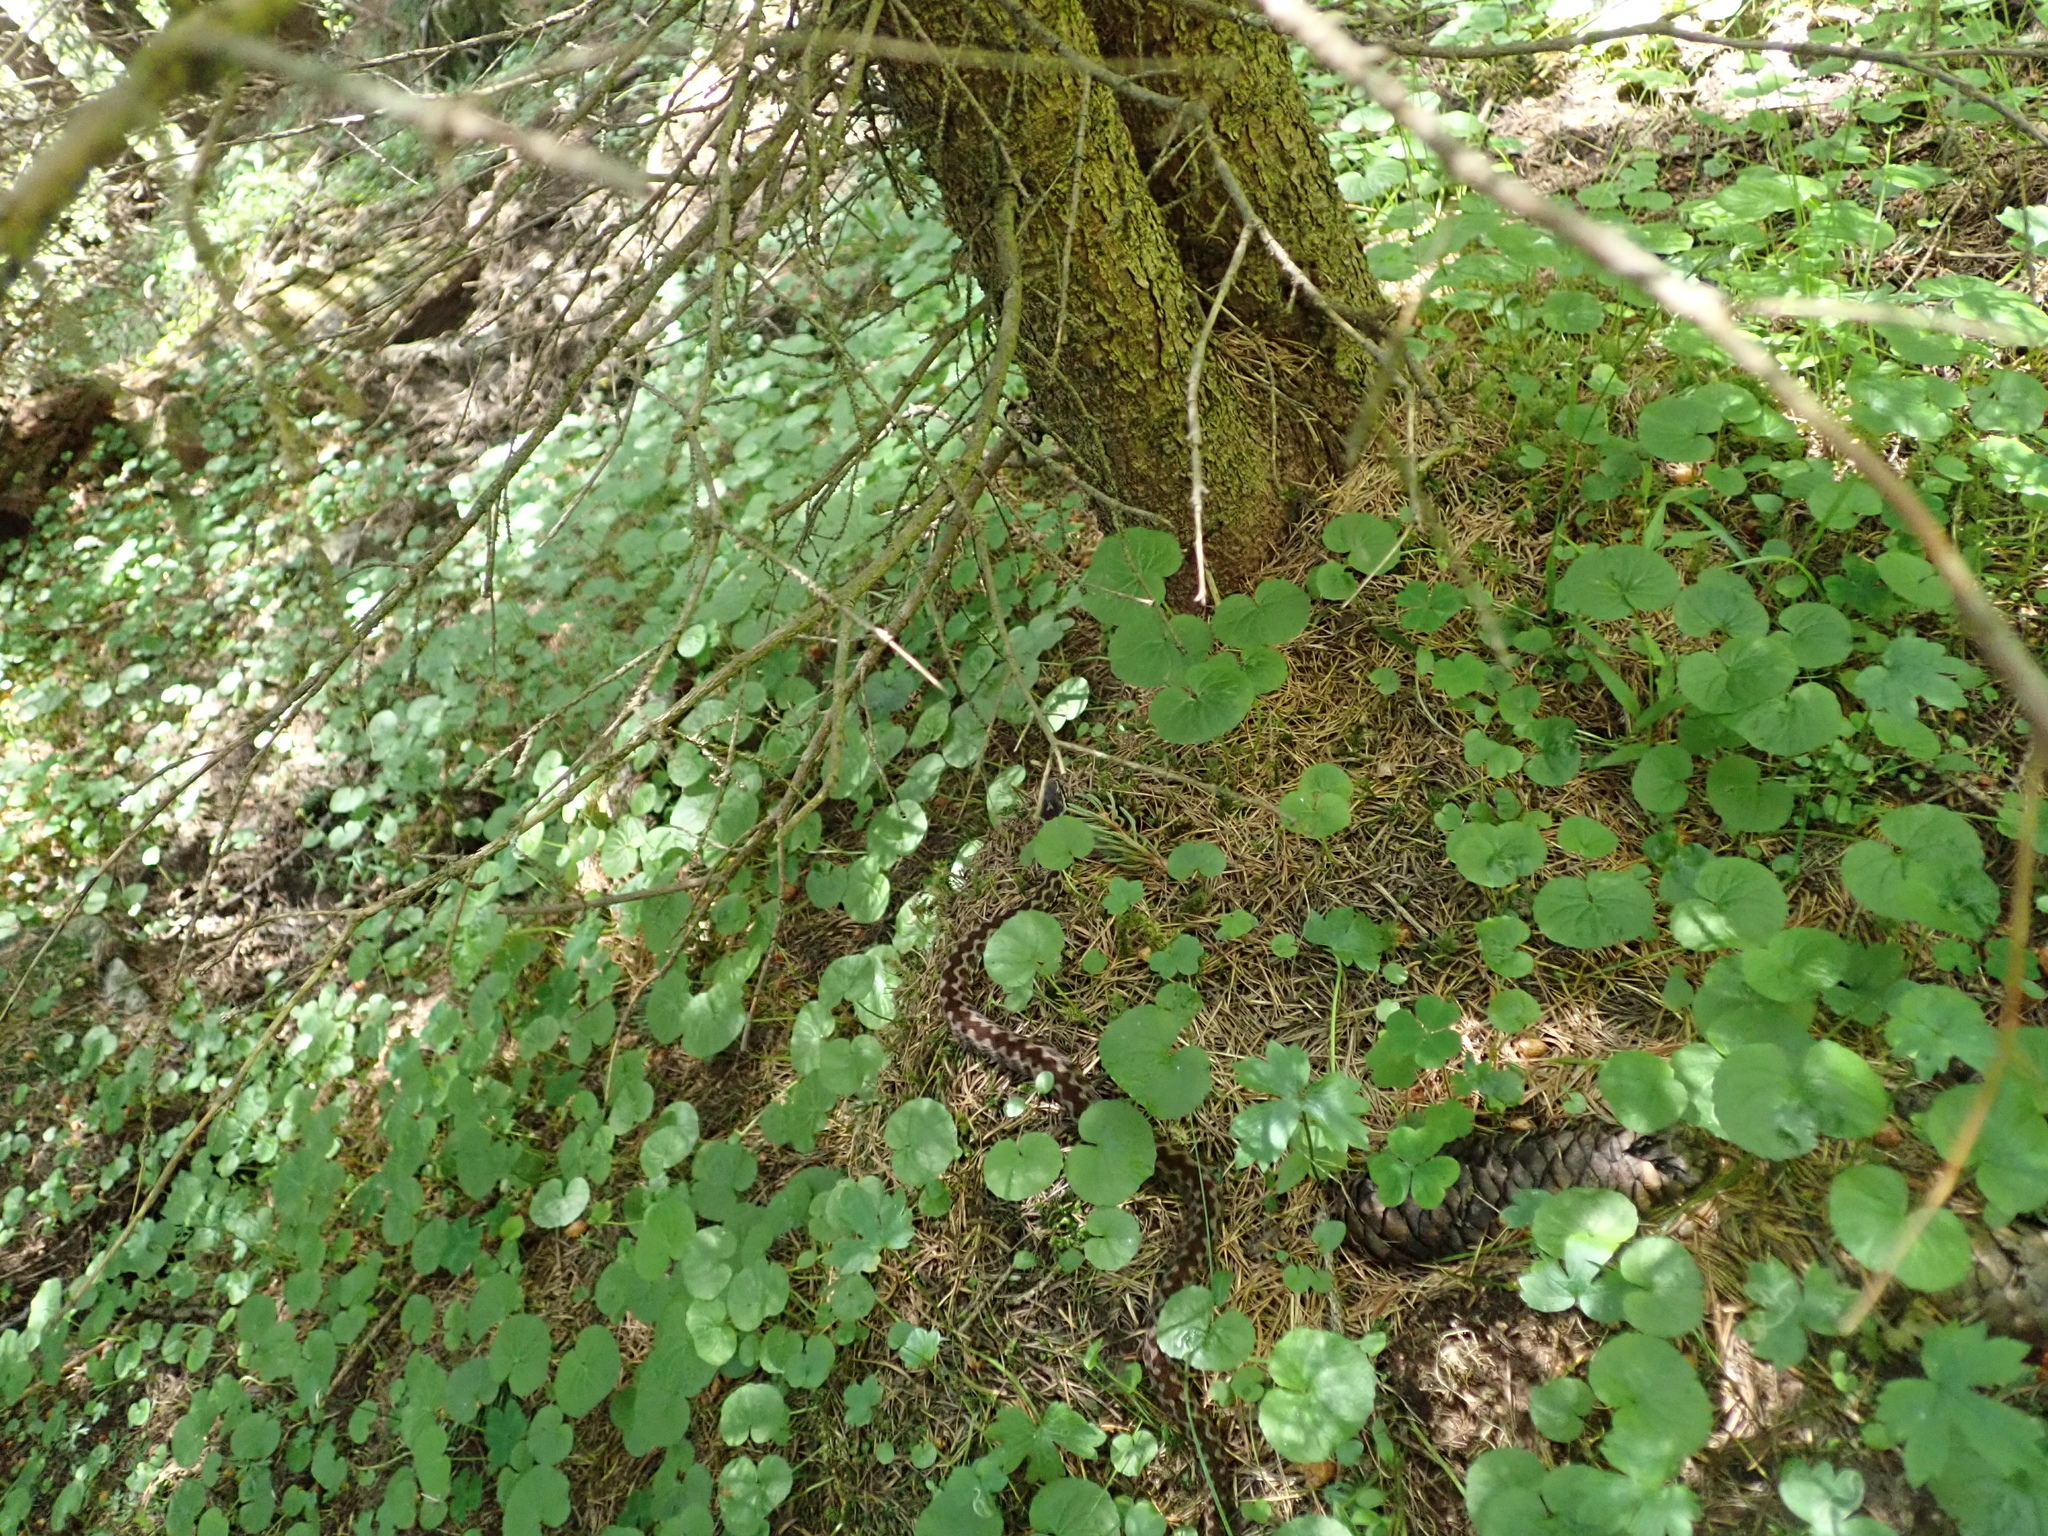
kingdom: Animalia
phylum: Chordata
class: Squamata
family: Viperidae
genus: Vipera
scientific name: Vipera berus
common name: Adder
